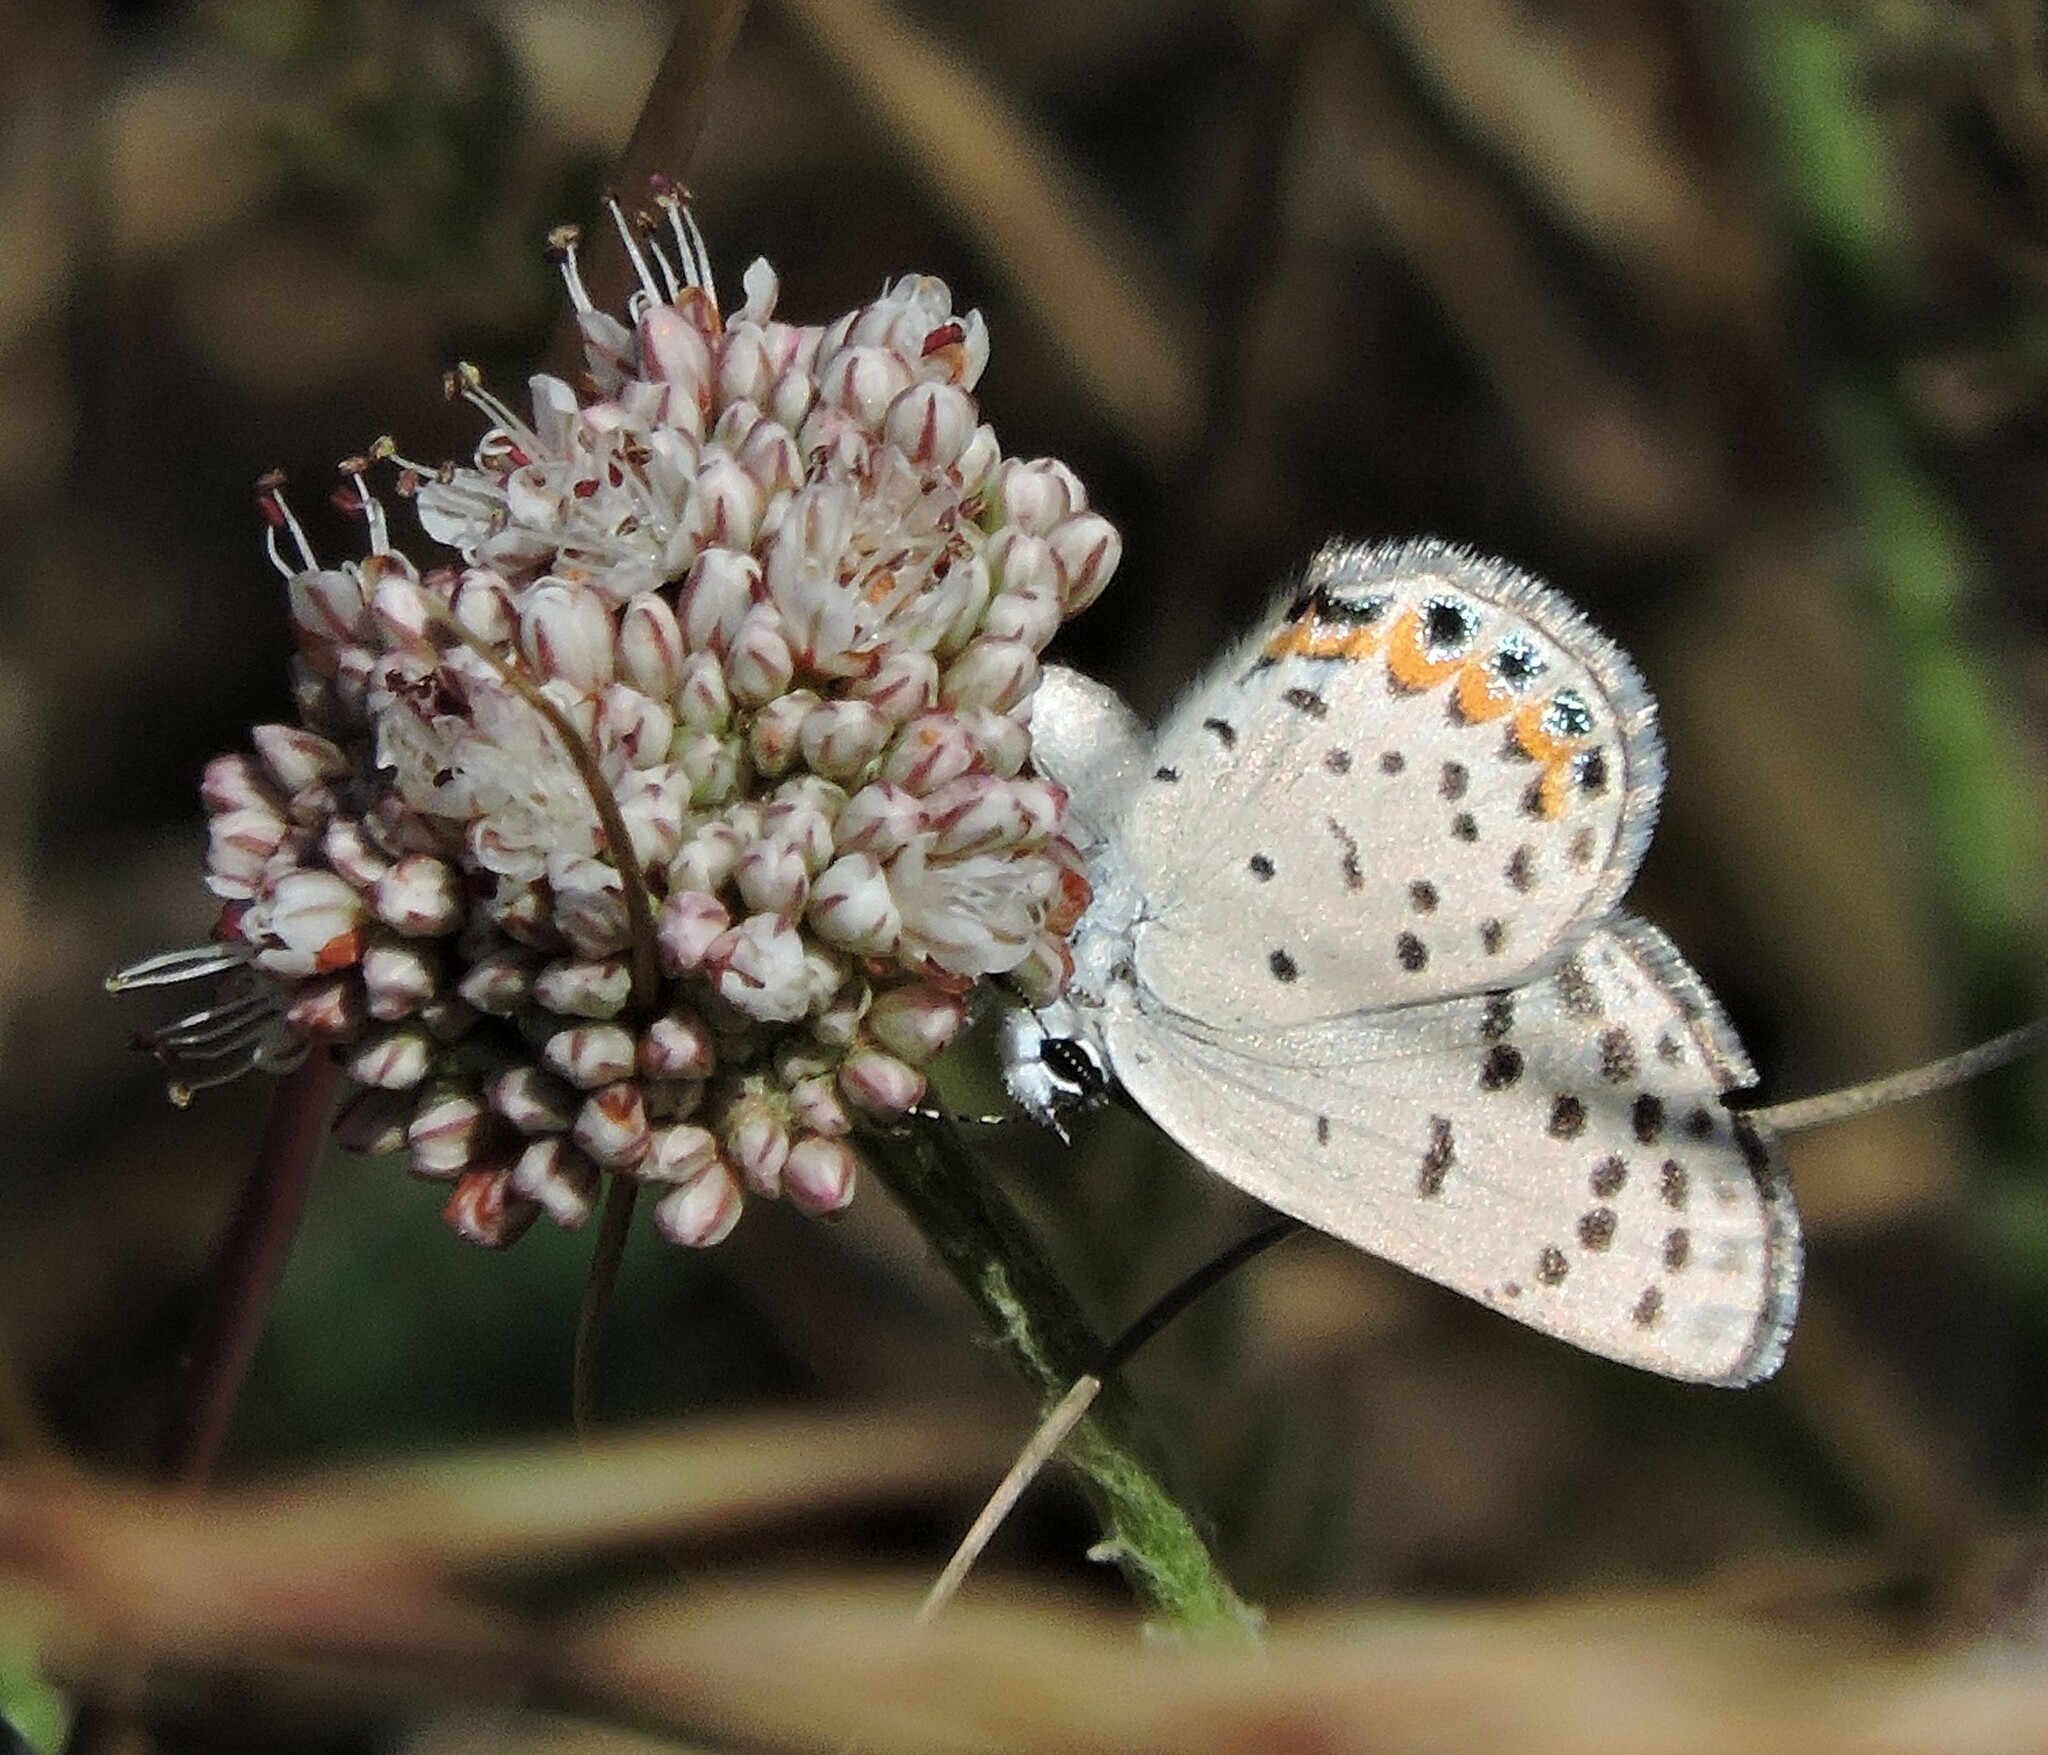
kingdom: Animalia
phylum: Arthropoda
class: Insecta
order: Lepidoptera
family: Lycaenidae
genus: Icaricia
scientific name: Icaricia acmon
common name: Acmon blue
